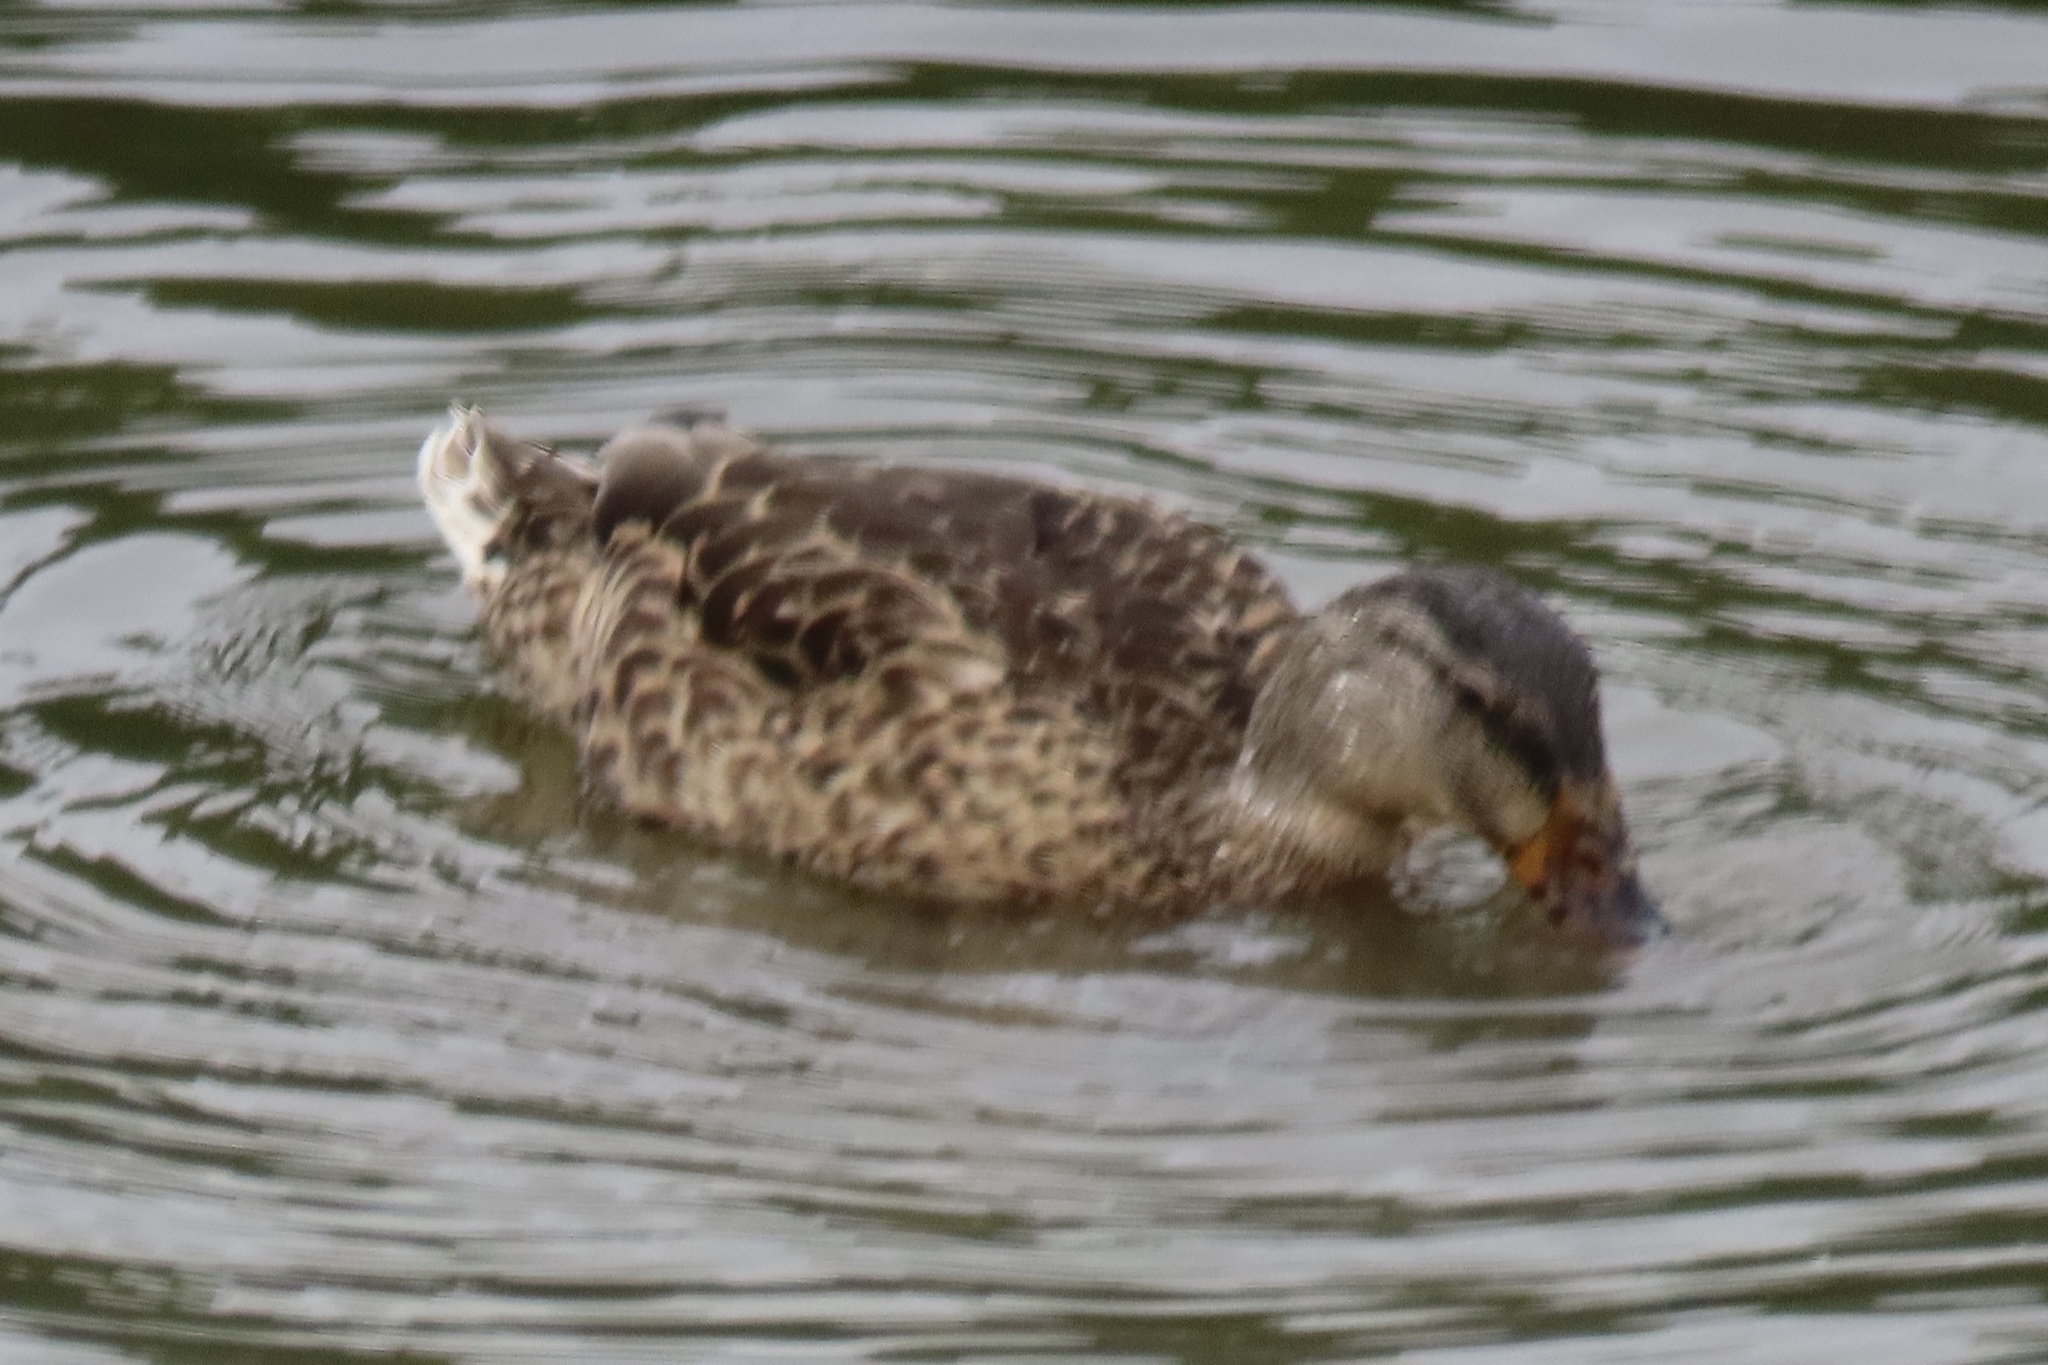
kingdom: Animalia
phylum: Chordata
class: Aves
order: Anseriformes
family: Anatidae
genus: Anas
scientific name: Anas platyrhynchos
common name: Mallard
